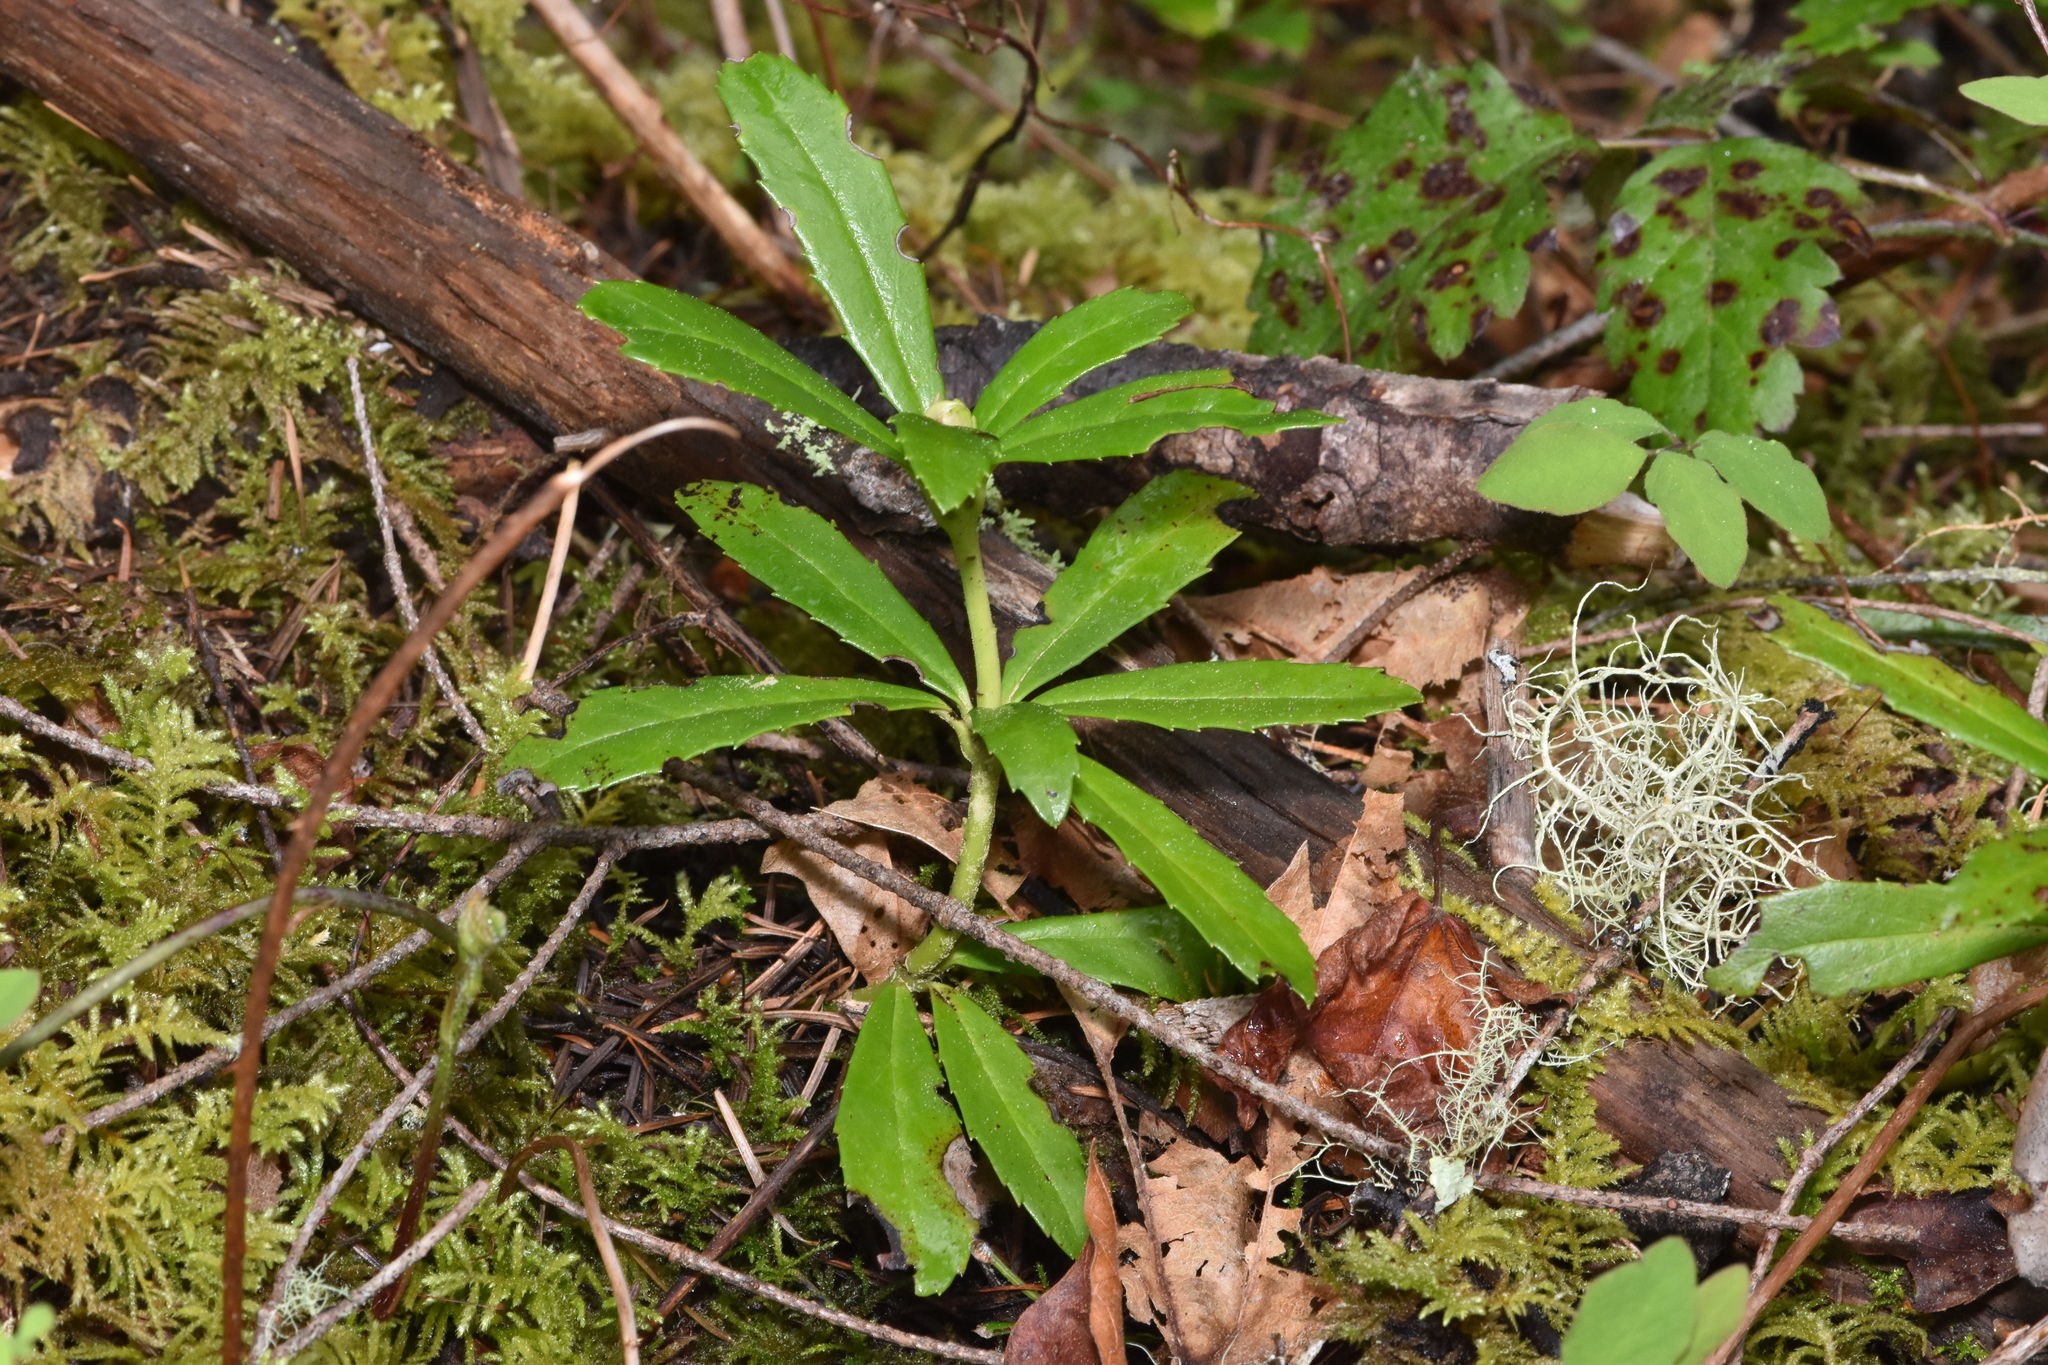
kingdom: Plantae
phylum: Tracheophyta
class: Magnoliopsida
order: Ericales
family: Ericaceae
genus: Chimaphila
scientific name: Chimaphila umbellata
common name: Pipsissewa
